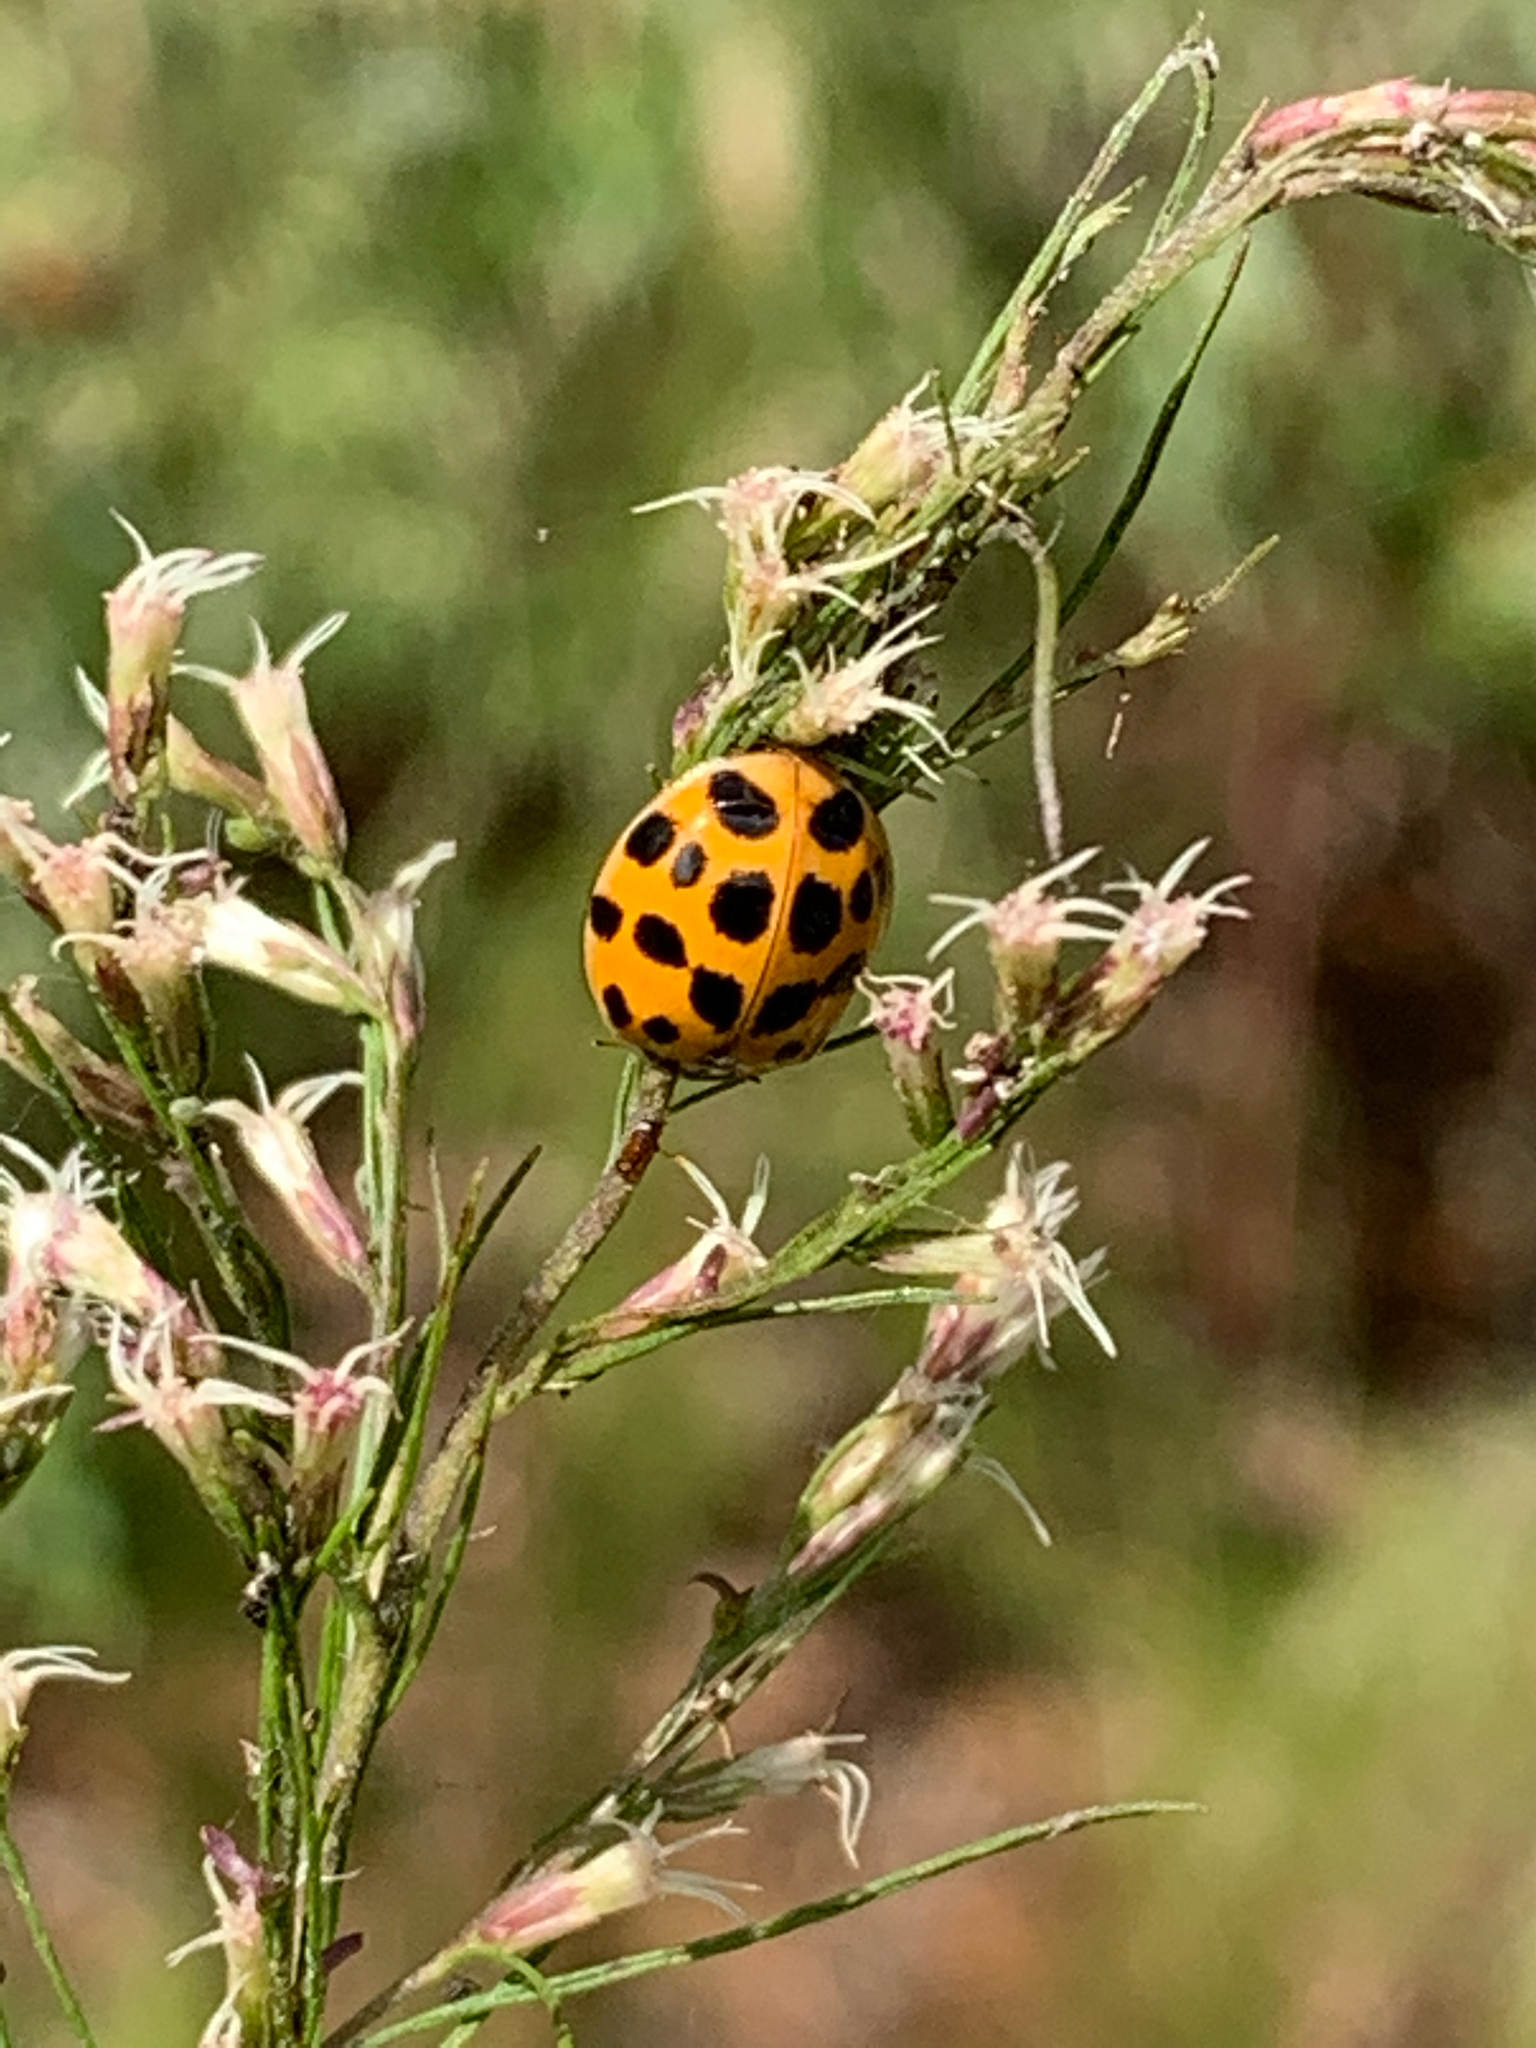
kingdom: Animalia
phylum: Arthropoda
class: Insecta
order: Coleoptera
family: Coccinellidae
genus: Harmonia
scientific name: Harmonia axyridis
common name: Harlequin ladybird
